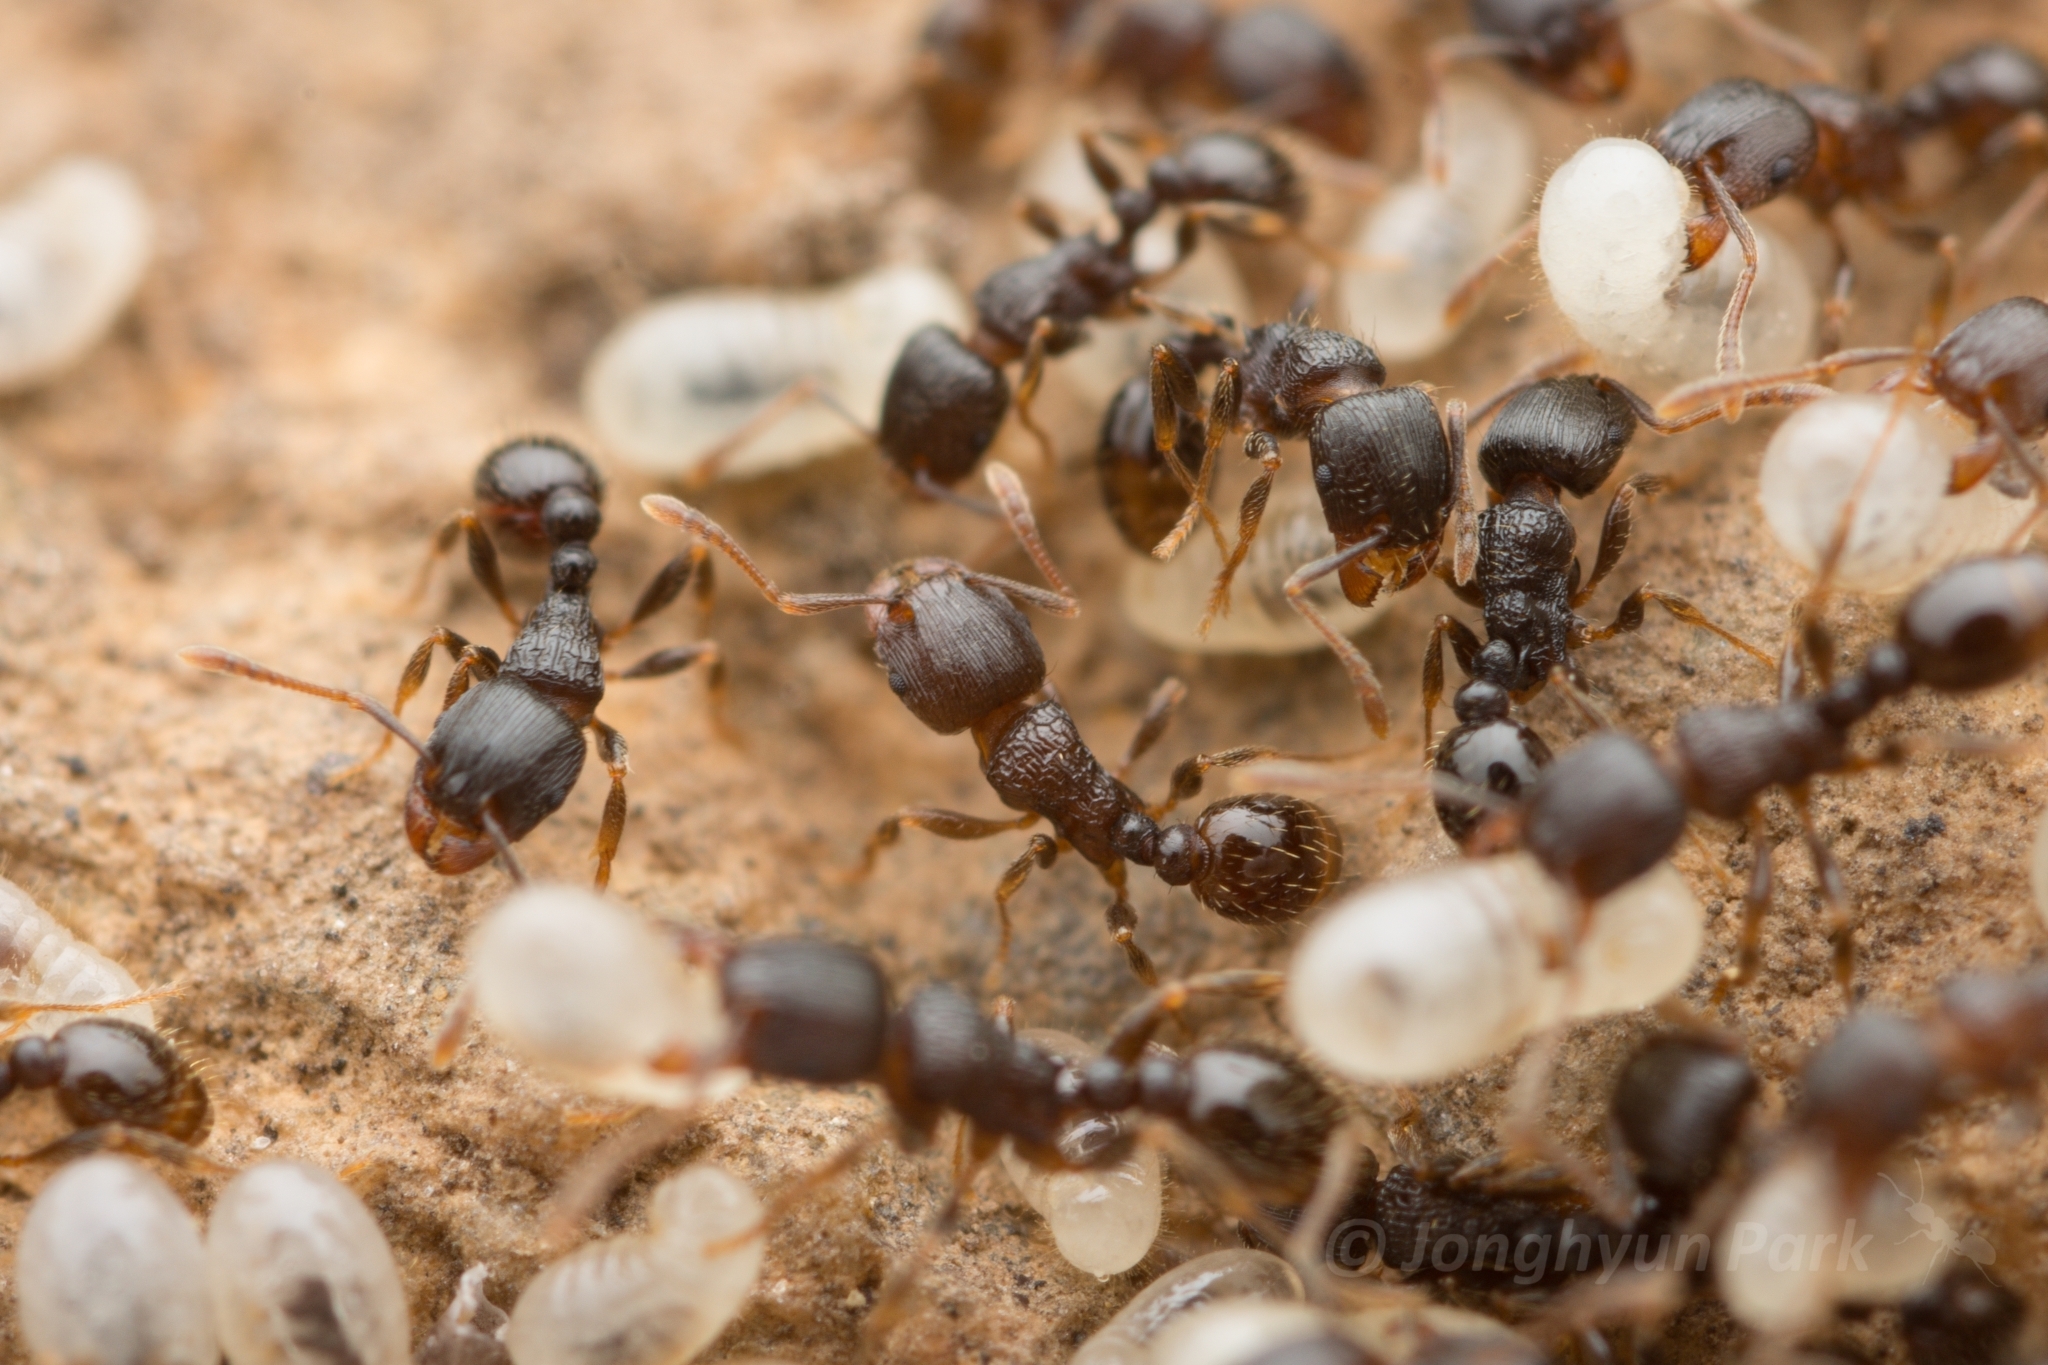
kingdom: Animalia
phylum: Arthropoda
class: Insecta
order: Hymenoptera
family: Formicidae
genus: Tetramorium
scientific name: Tetramorium tsushimae
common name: Ant
